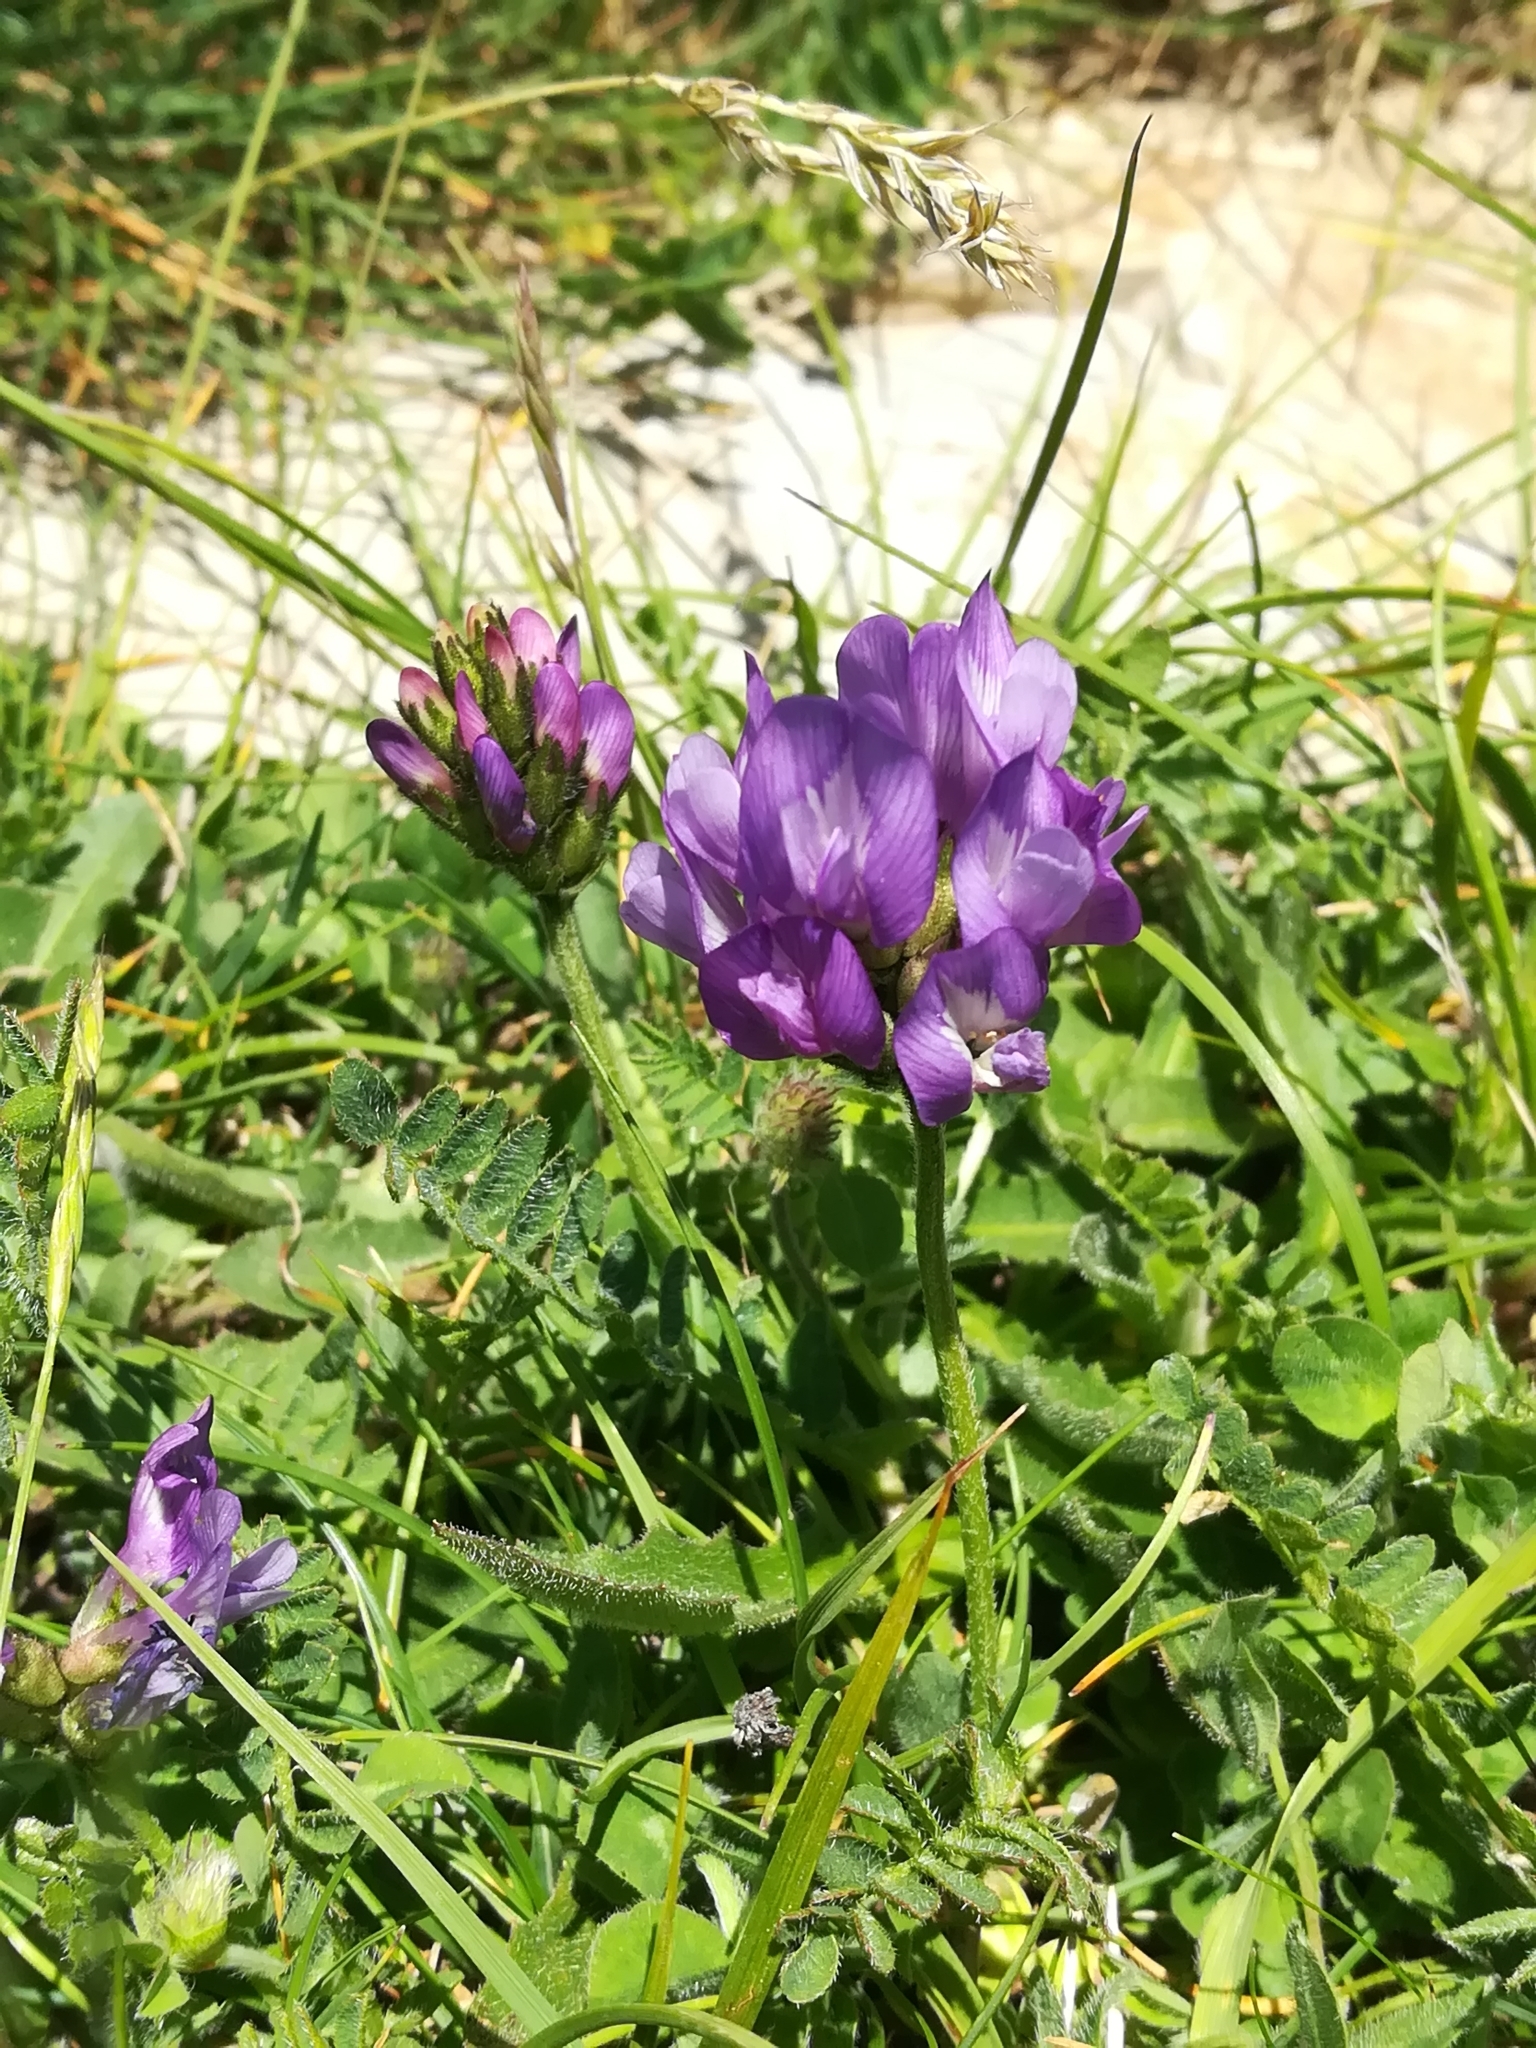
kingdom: Plantae
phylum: Tracheophyta
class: Magnoliopsida
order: Fabales
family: Fabaceae
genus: Astragalus
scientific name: Astragalus danicus
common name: Purple milk-vetch
